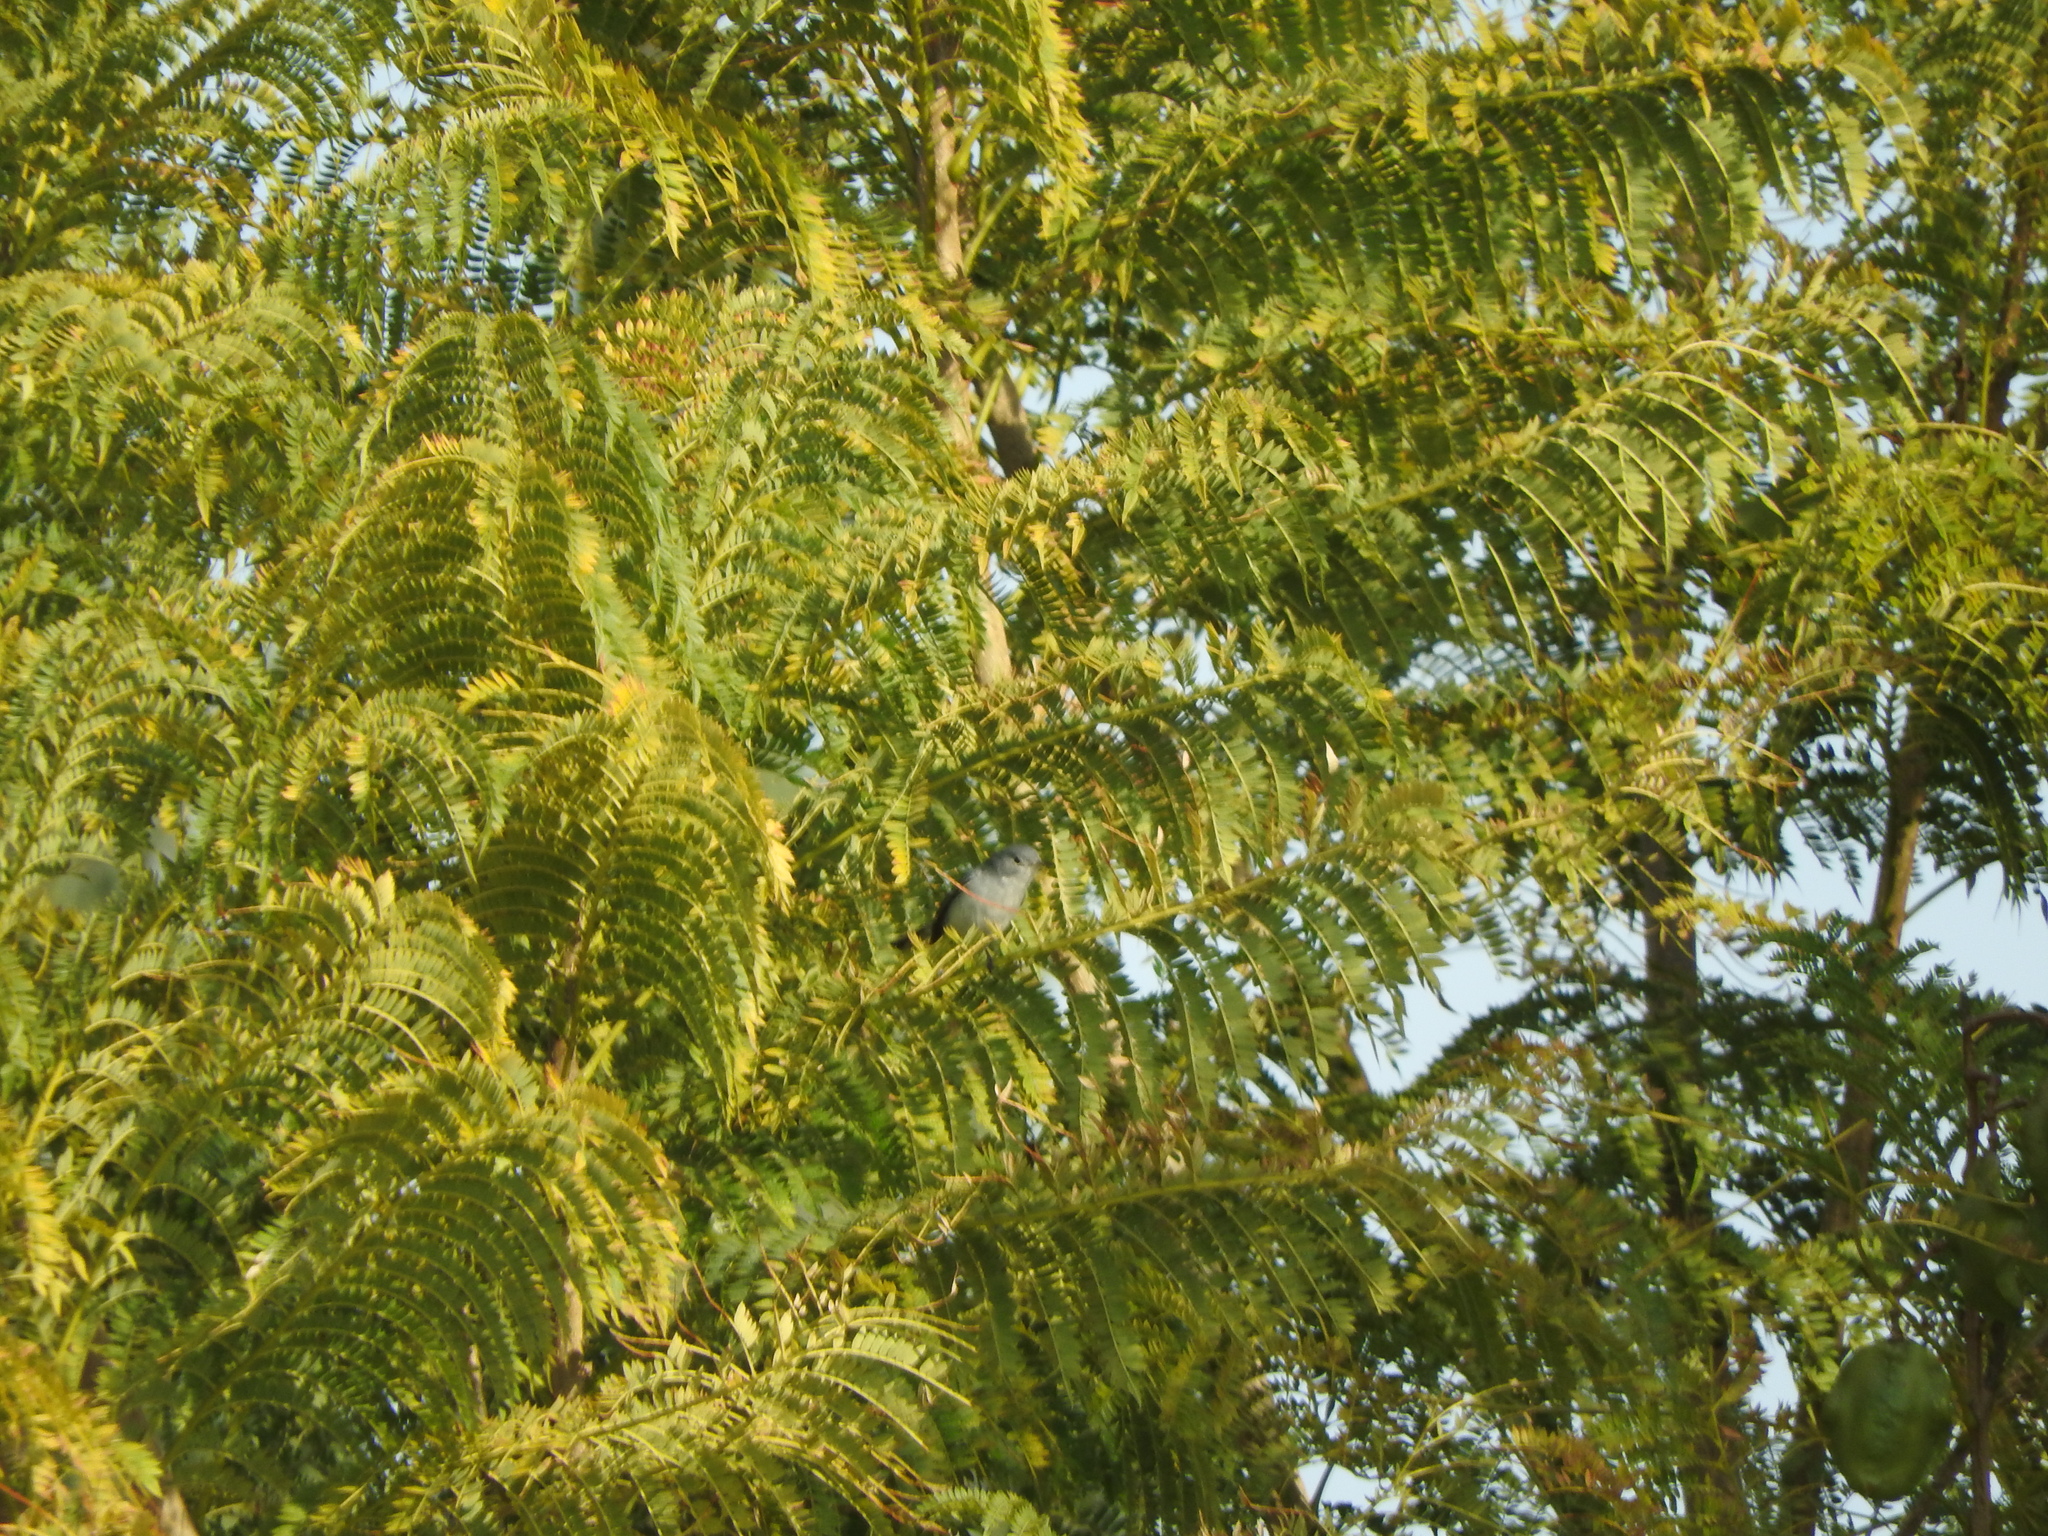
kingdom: Animalia
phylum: Chordata
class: Aves
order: Passeriformes
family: Polioptilidae
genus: Polioptila
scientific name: Polioptila caerulea
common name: Blue-gray gnatcatcher
